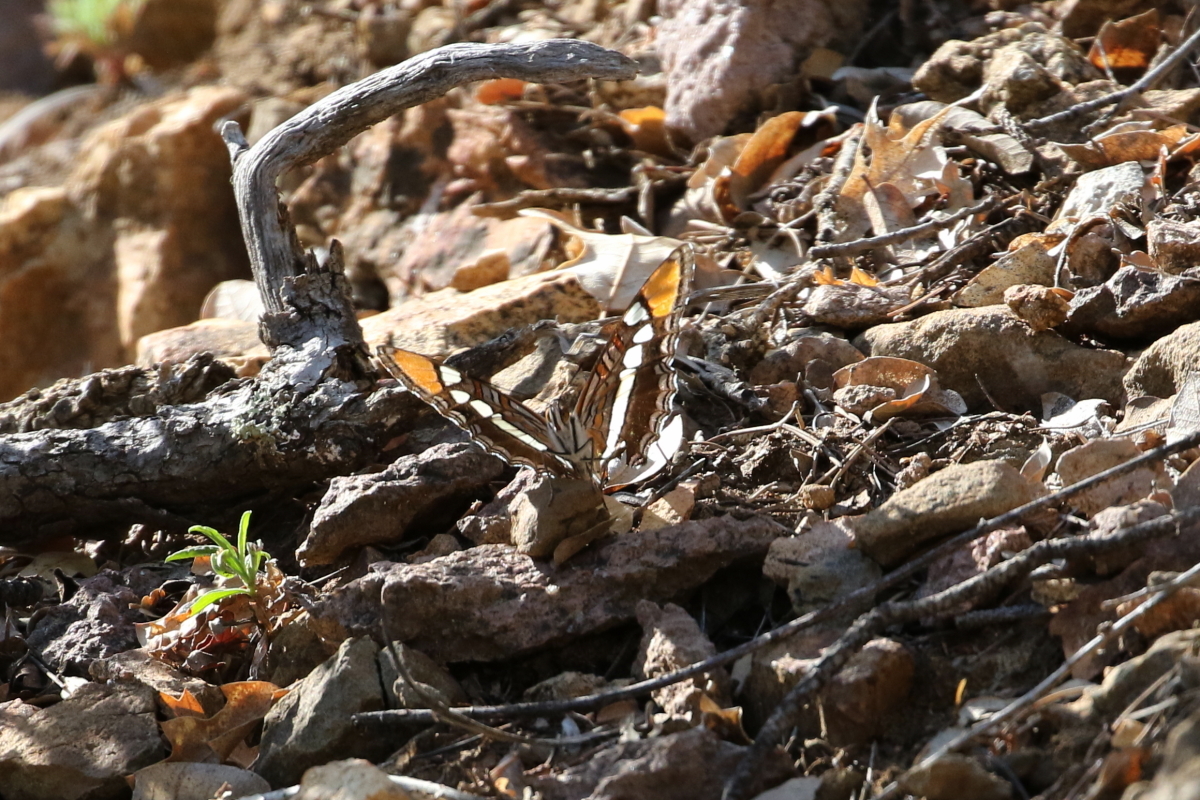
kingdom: Animalia
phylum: Arthropoda
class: Insecta
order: Lepidoptera
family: Nymphalidae
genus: Limenitis
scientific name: Limenitis bredowii
